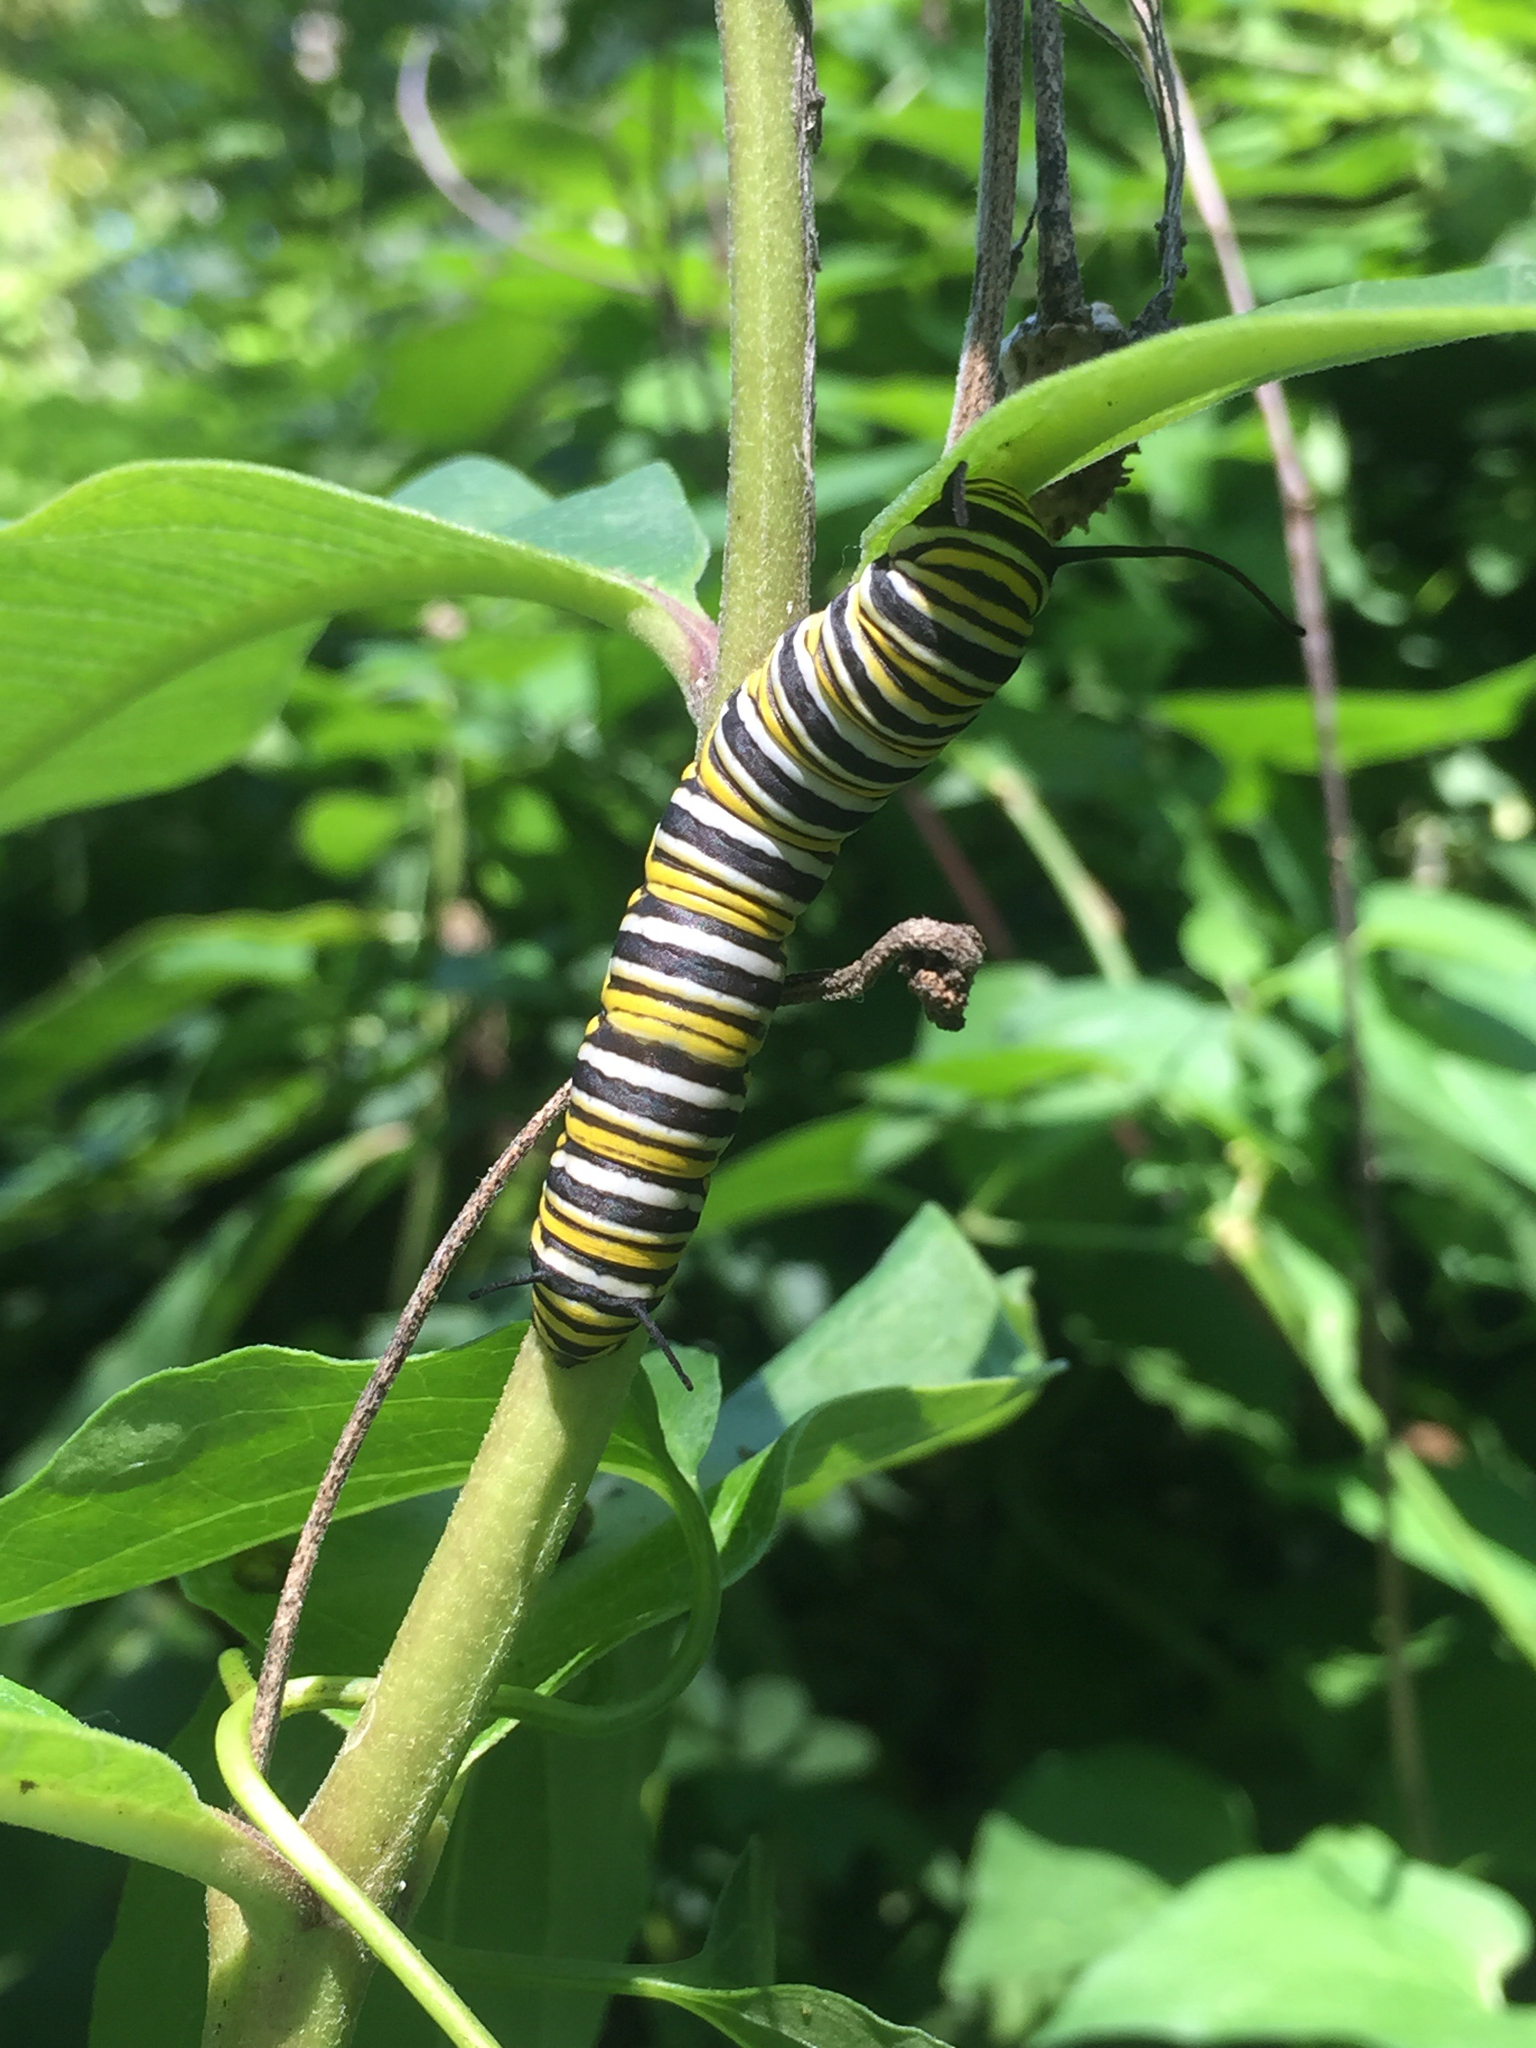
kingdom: Animalia
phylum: Arthropoda
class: Insecta
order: Lepidoptera
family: Nymphalidae
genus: Danaus
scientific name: Danaus plexippus
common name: Monarch
